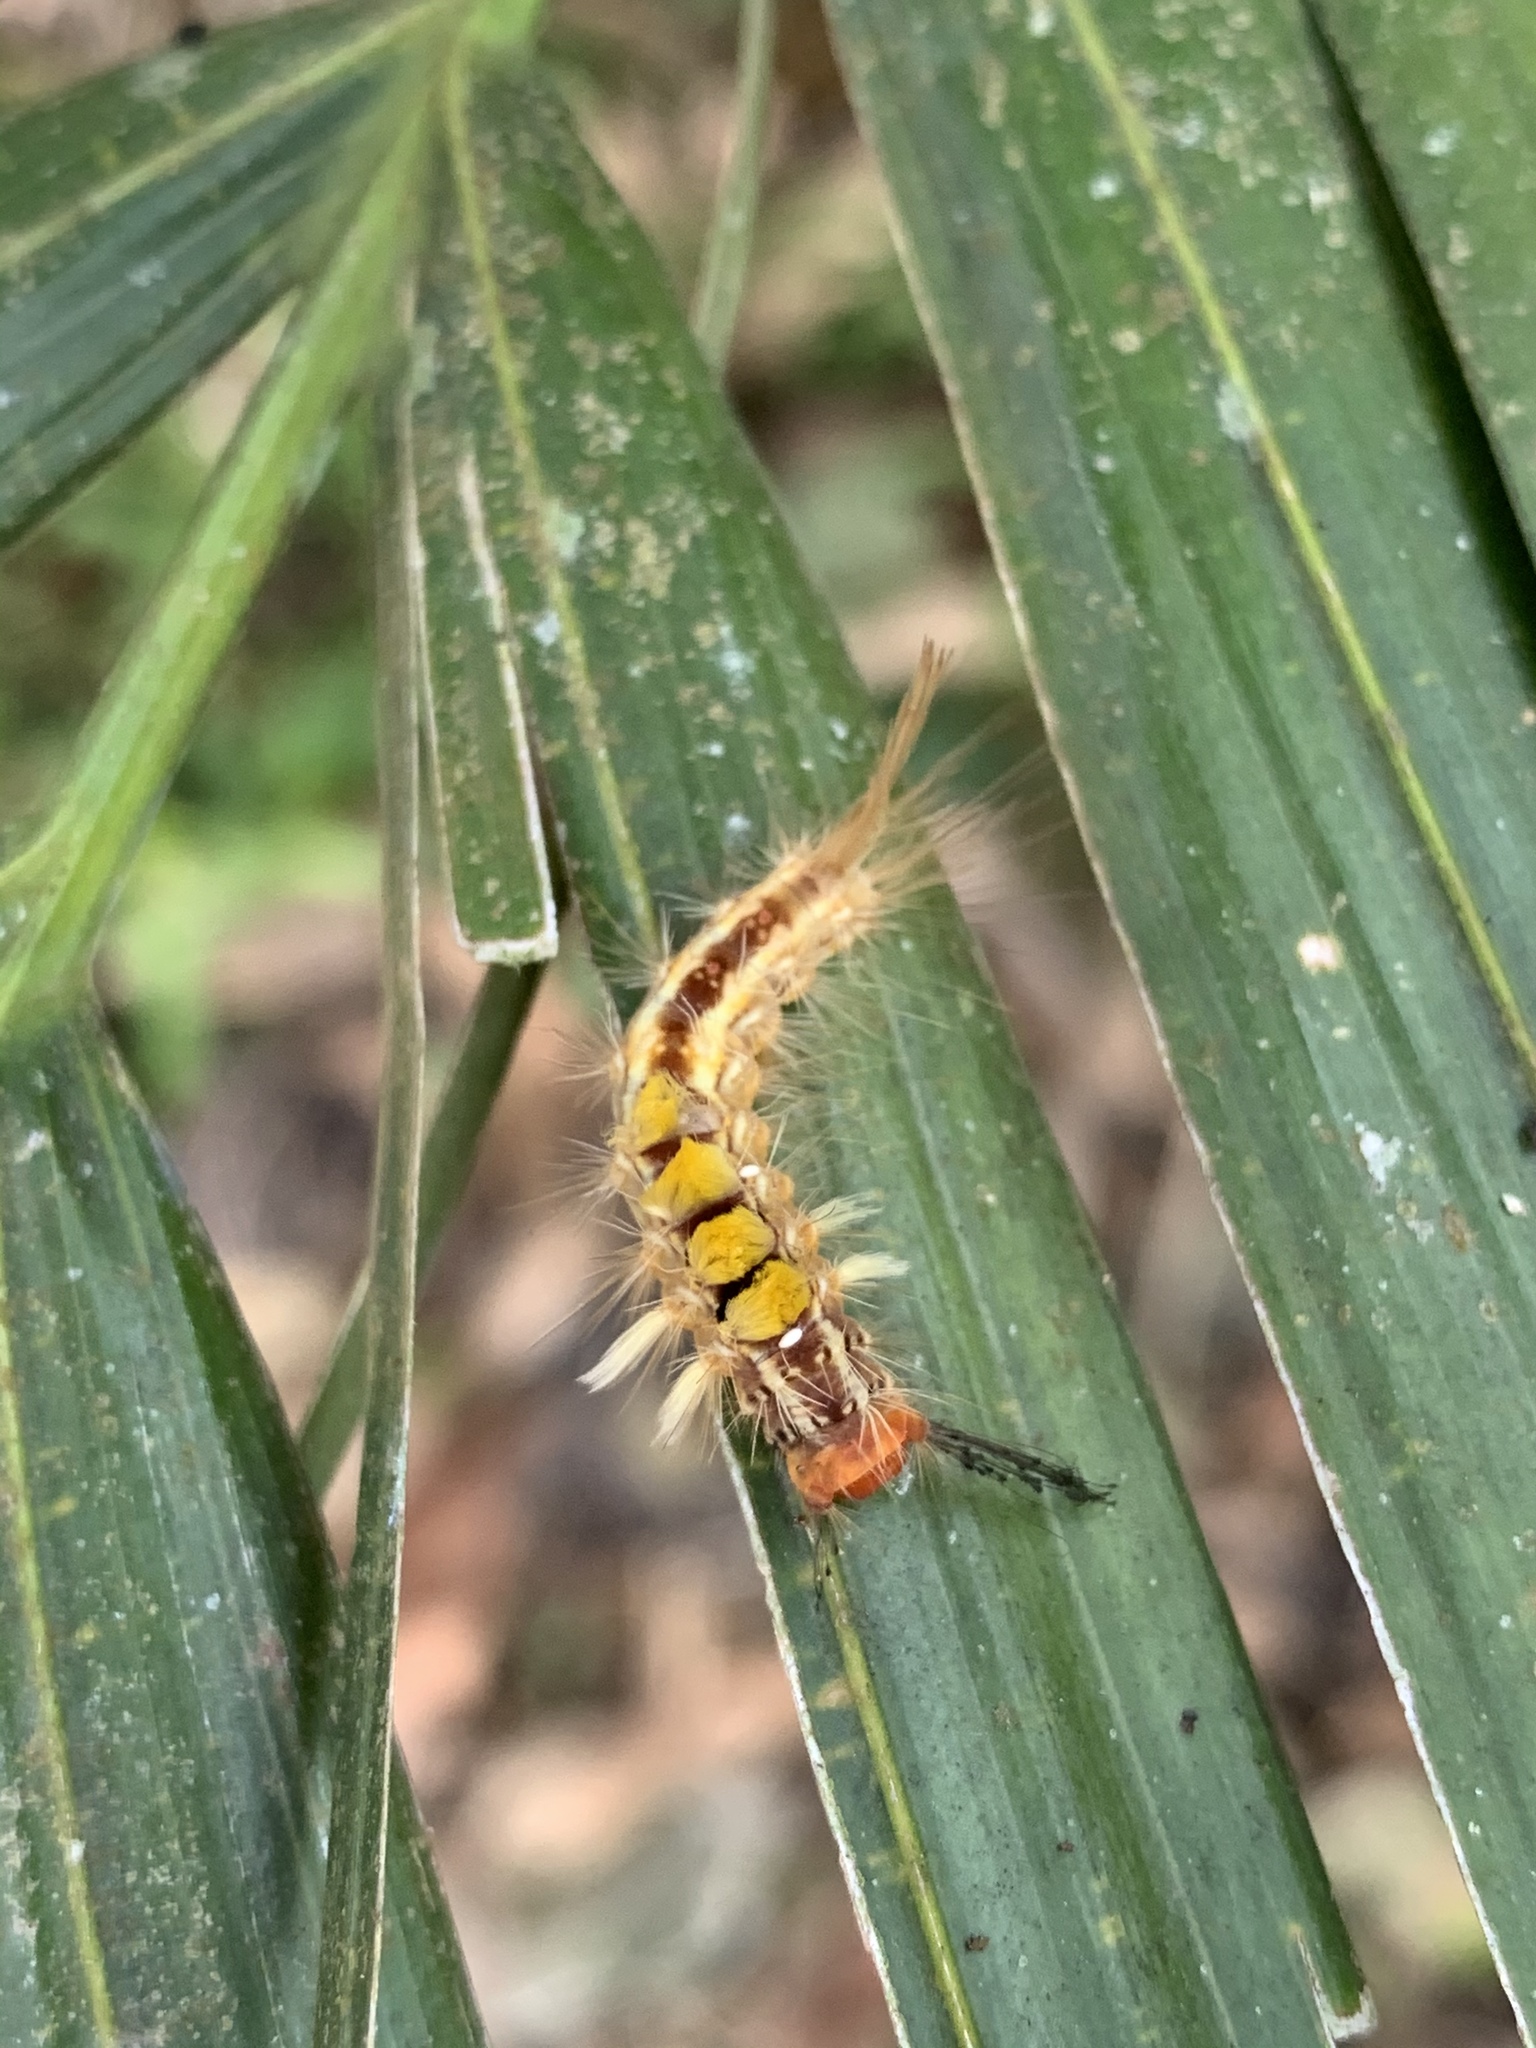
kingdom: Animalia
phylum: Arthropoda
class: Insecta
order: Lepidoptera
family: Erebidae
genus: Orgyia
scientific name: Orgyia postica
